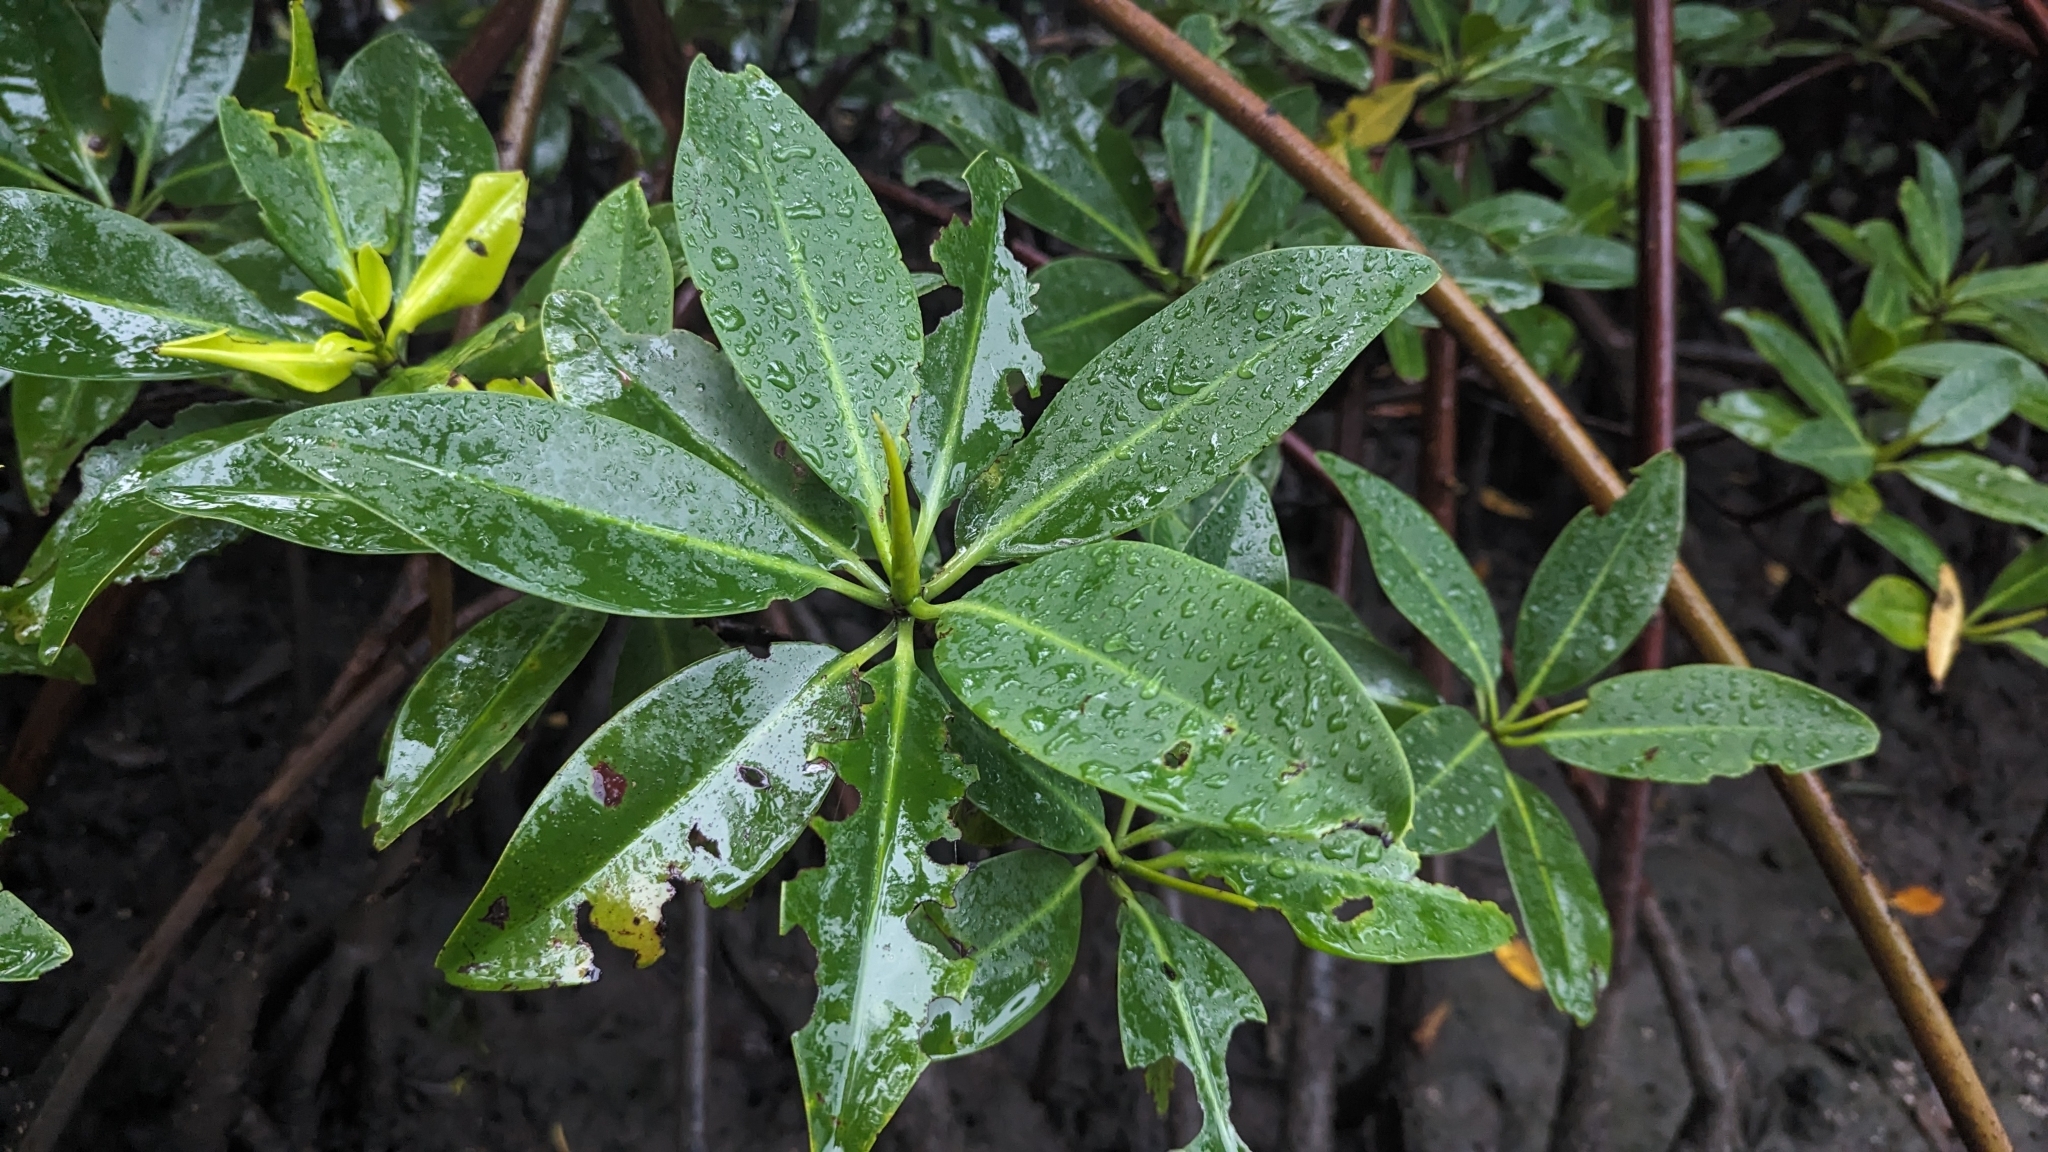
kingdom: Plantae
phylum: Tracheophyta
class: Magnoliopsida
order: Malpighiales
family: Rhizophoraceae
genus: Rhizophora
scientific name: Rhizophora mangle
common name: Red mangrove
